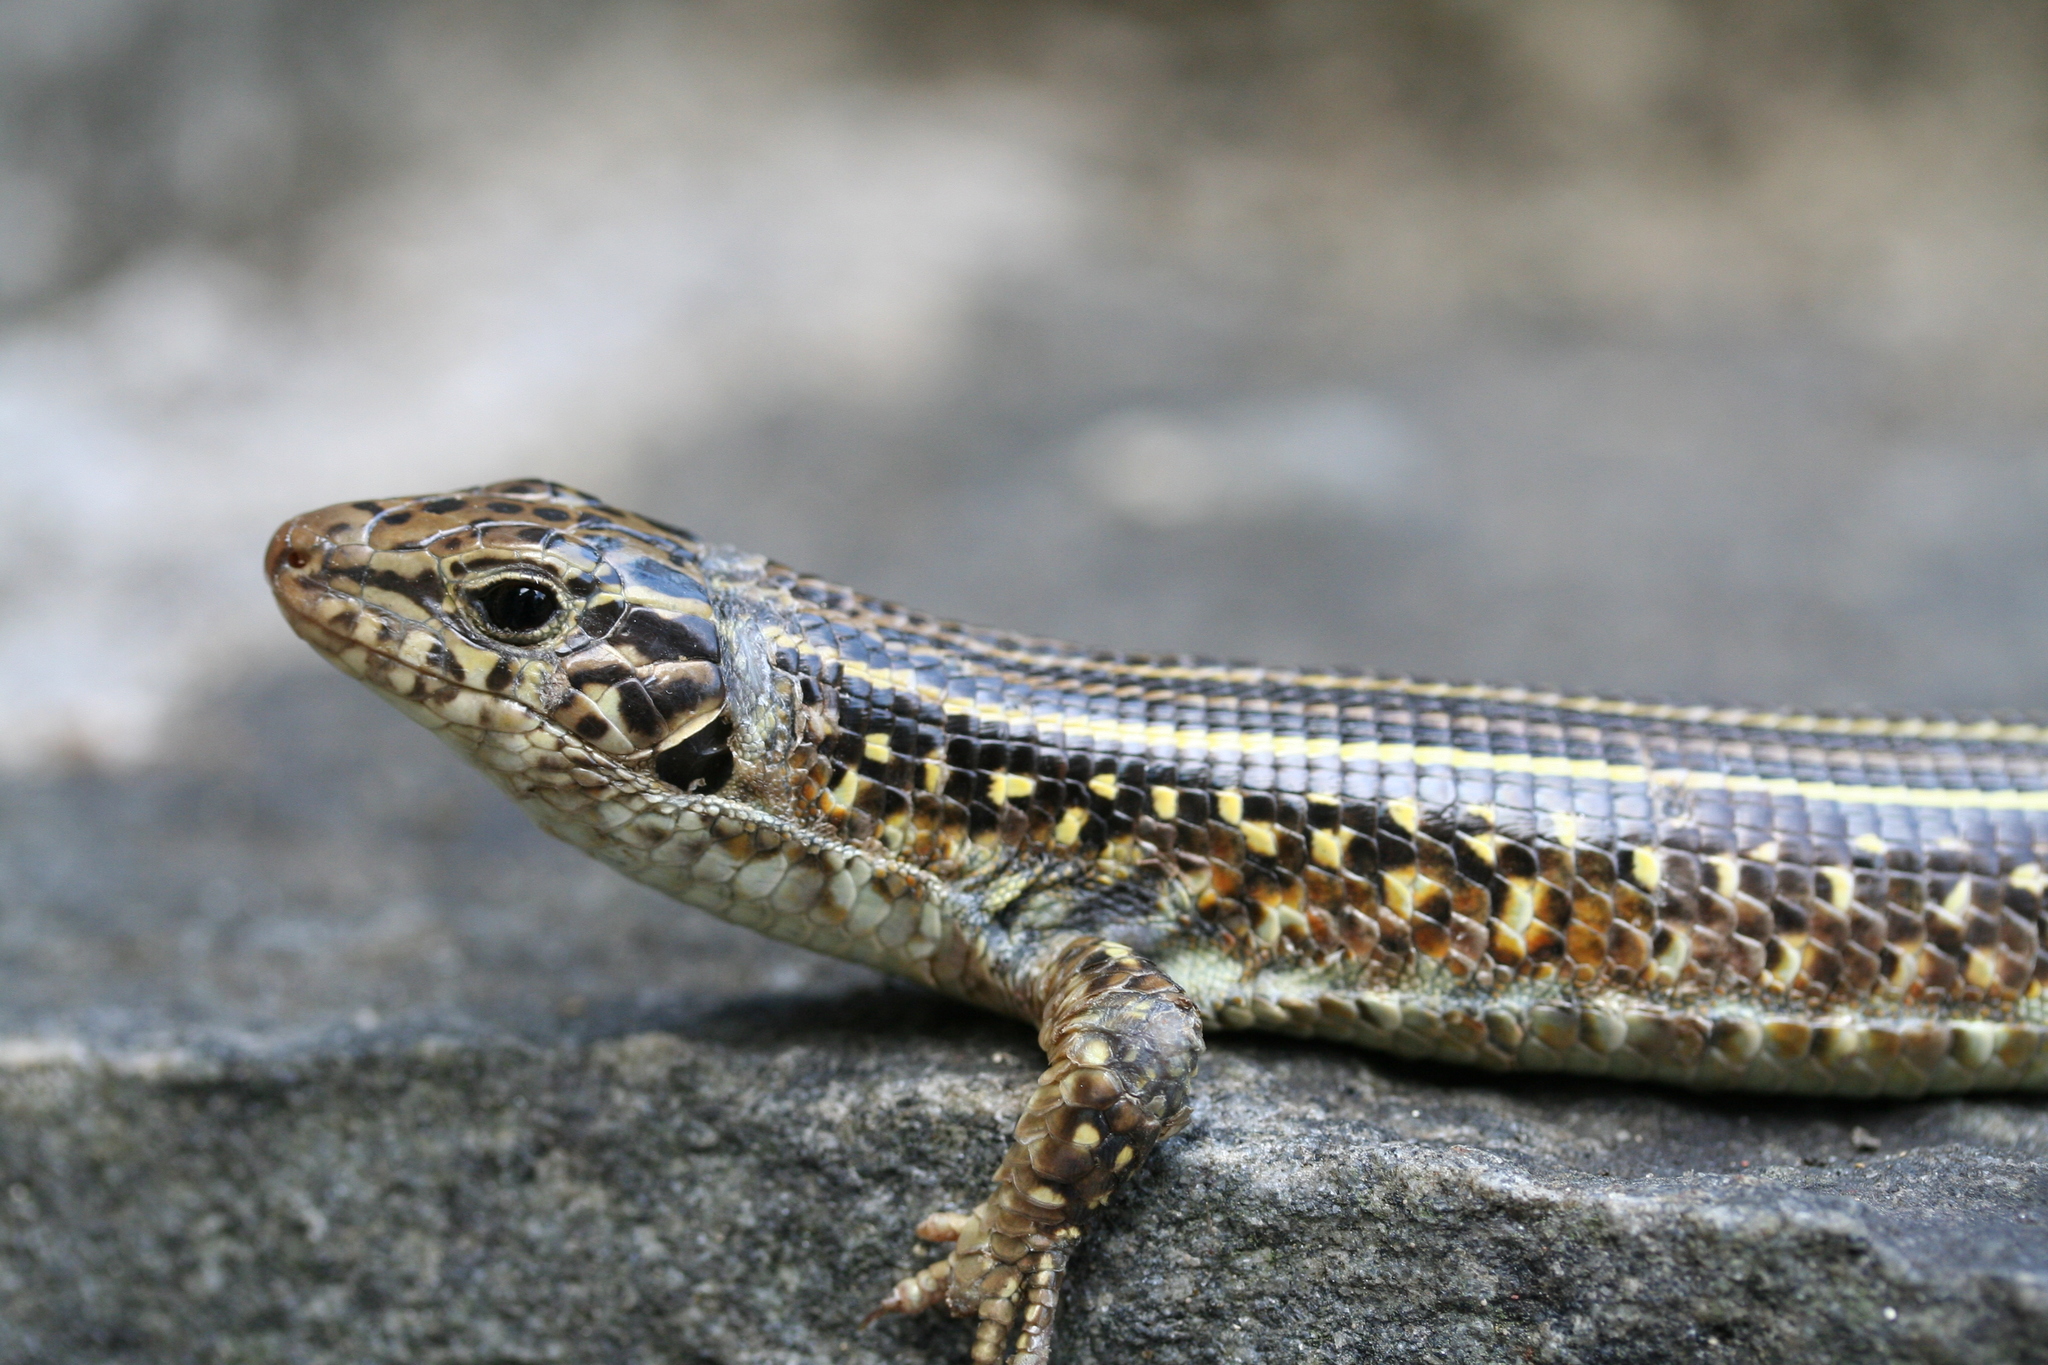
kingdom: Animalia
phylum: Chordata
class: Squamata
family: Gerrhosauridae
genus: Zonosaurus
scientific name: Zonosaurus ornatus
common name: Ornate girdled lizard
